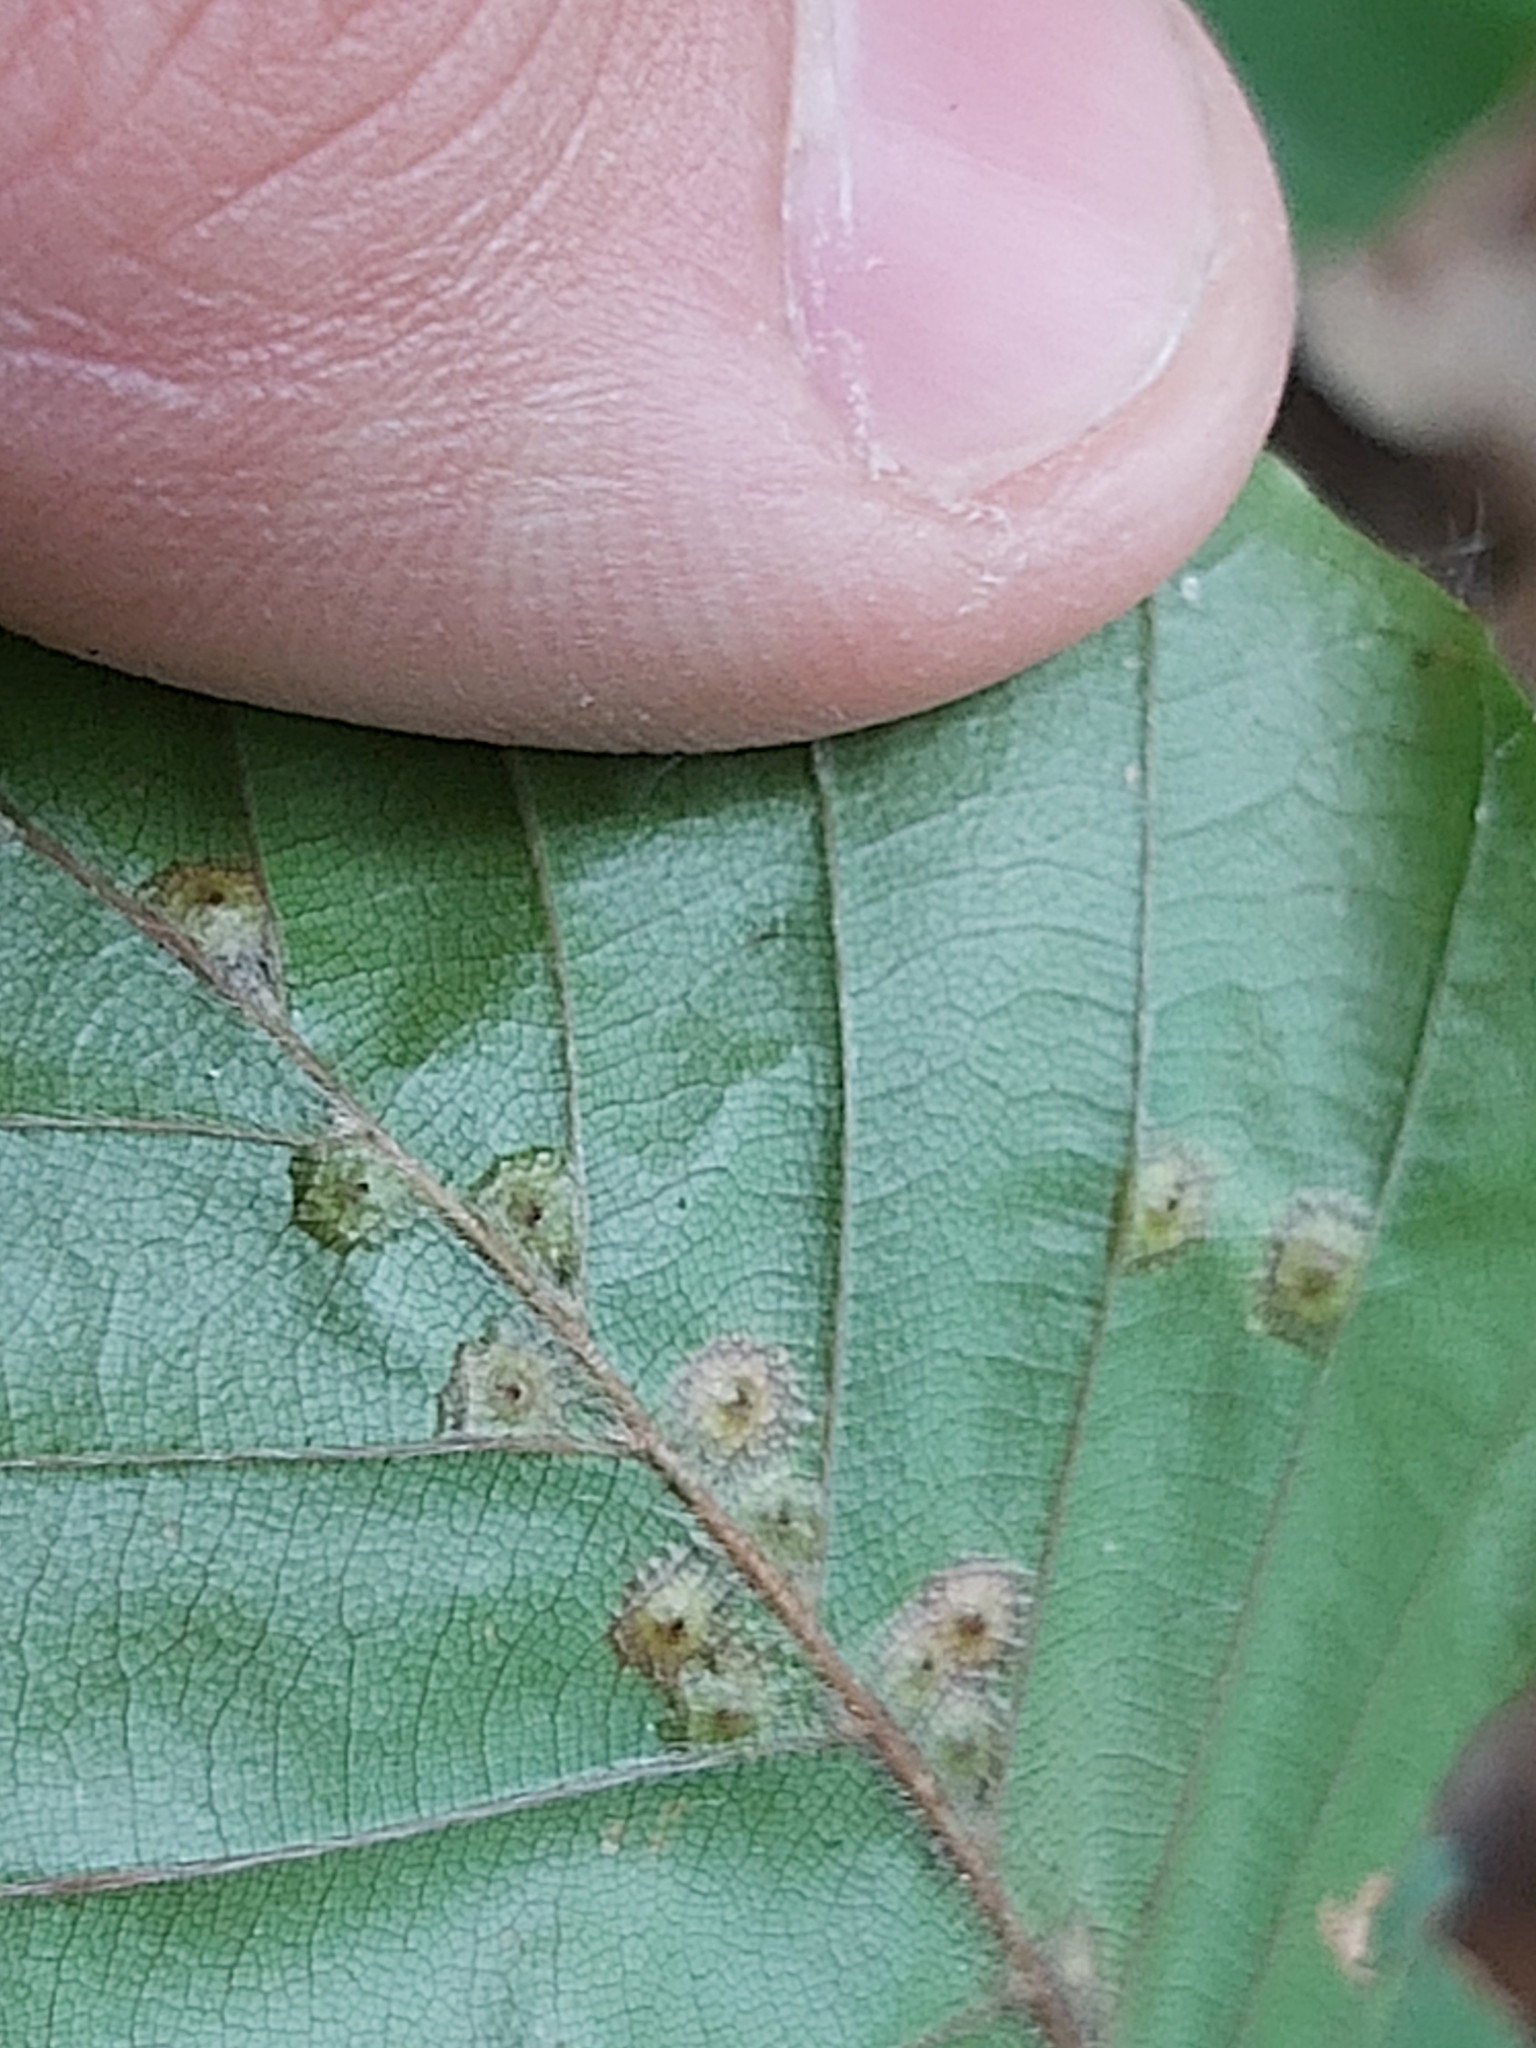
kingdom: Animalia
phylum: Arthropoda
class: Insecta
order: Diptera
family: Cecidomyiidae
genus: Hartigiola
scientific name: Hartigiola annulipes
